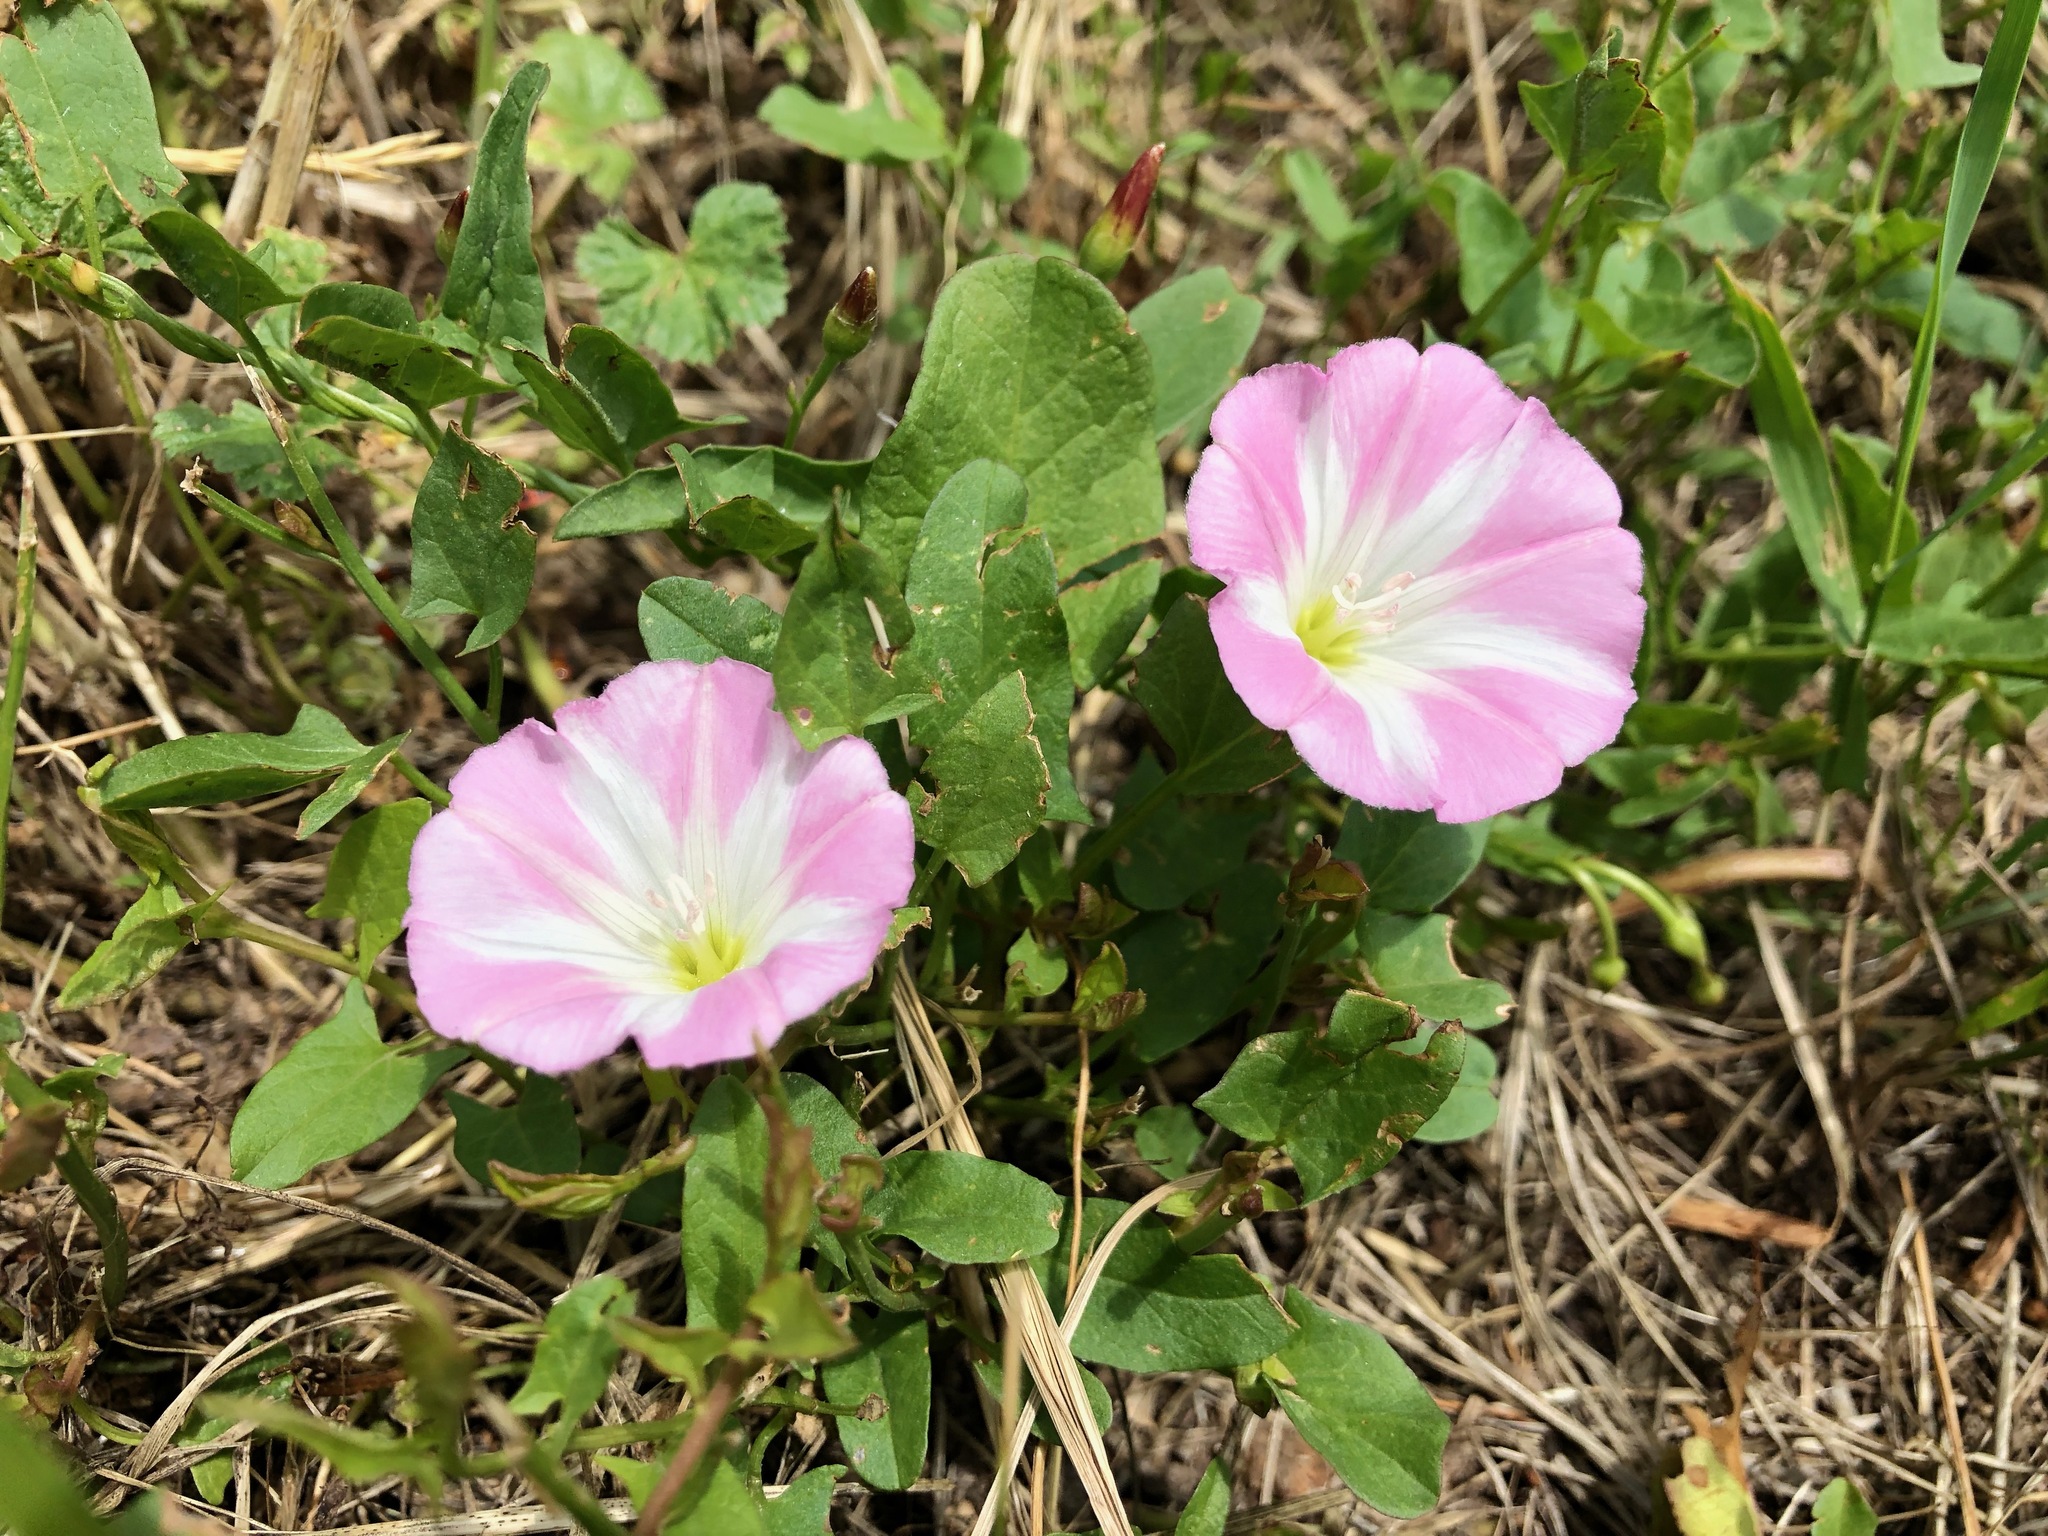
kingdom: Plantae
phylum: Tracheophyta
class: Magnoliopsida
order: Solanales
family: Convolvulaceae
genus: Convolvulus
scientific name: Convolvulus arvensis
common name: Field bindweed
